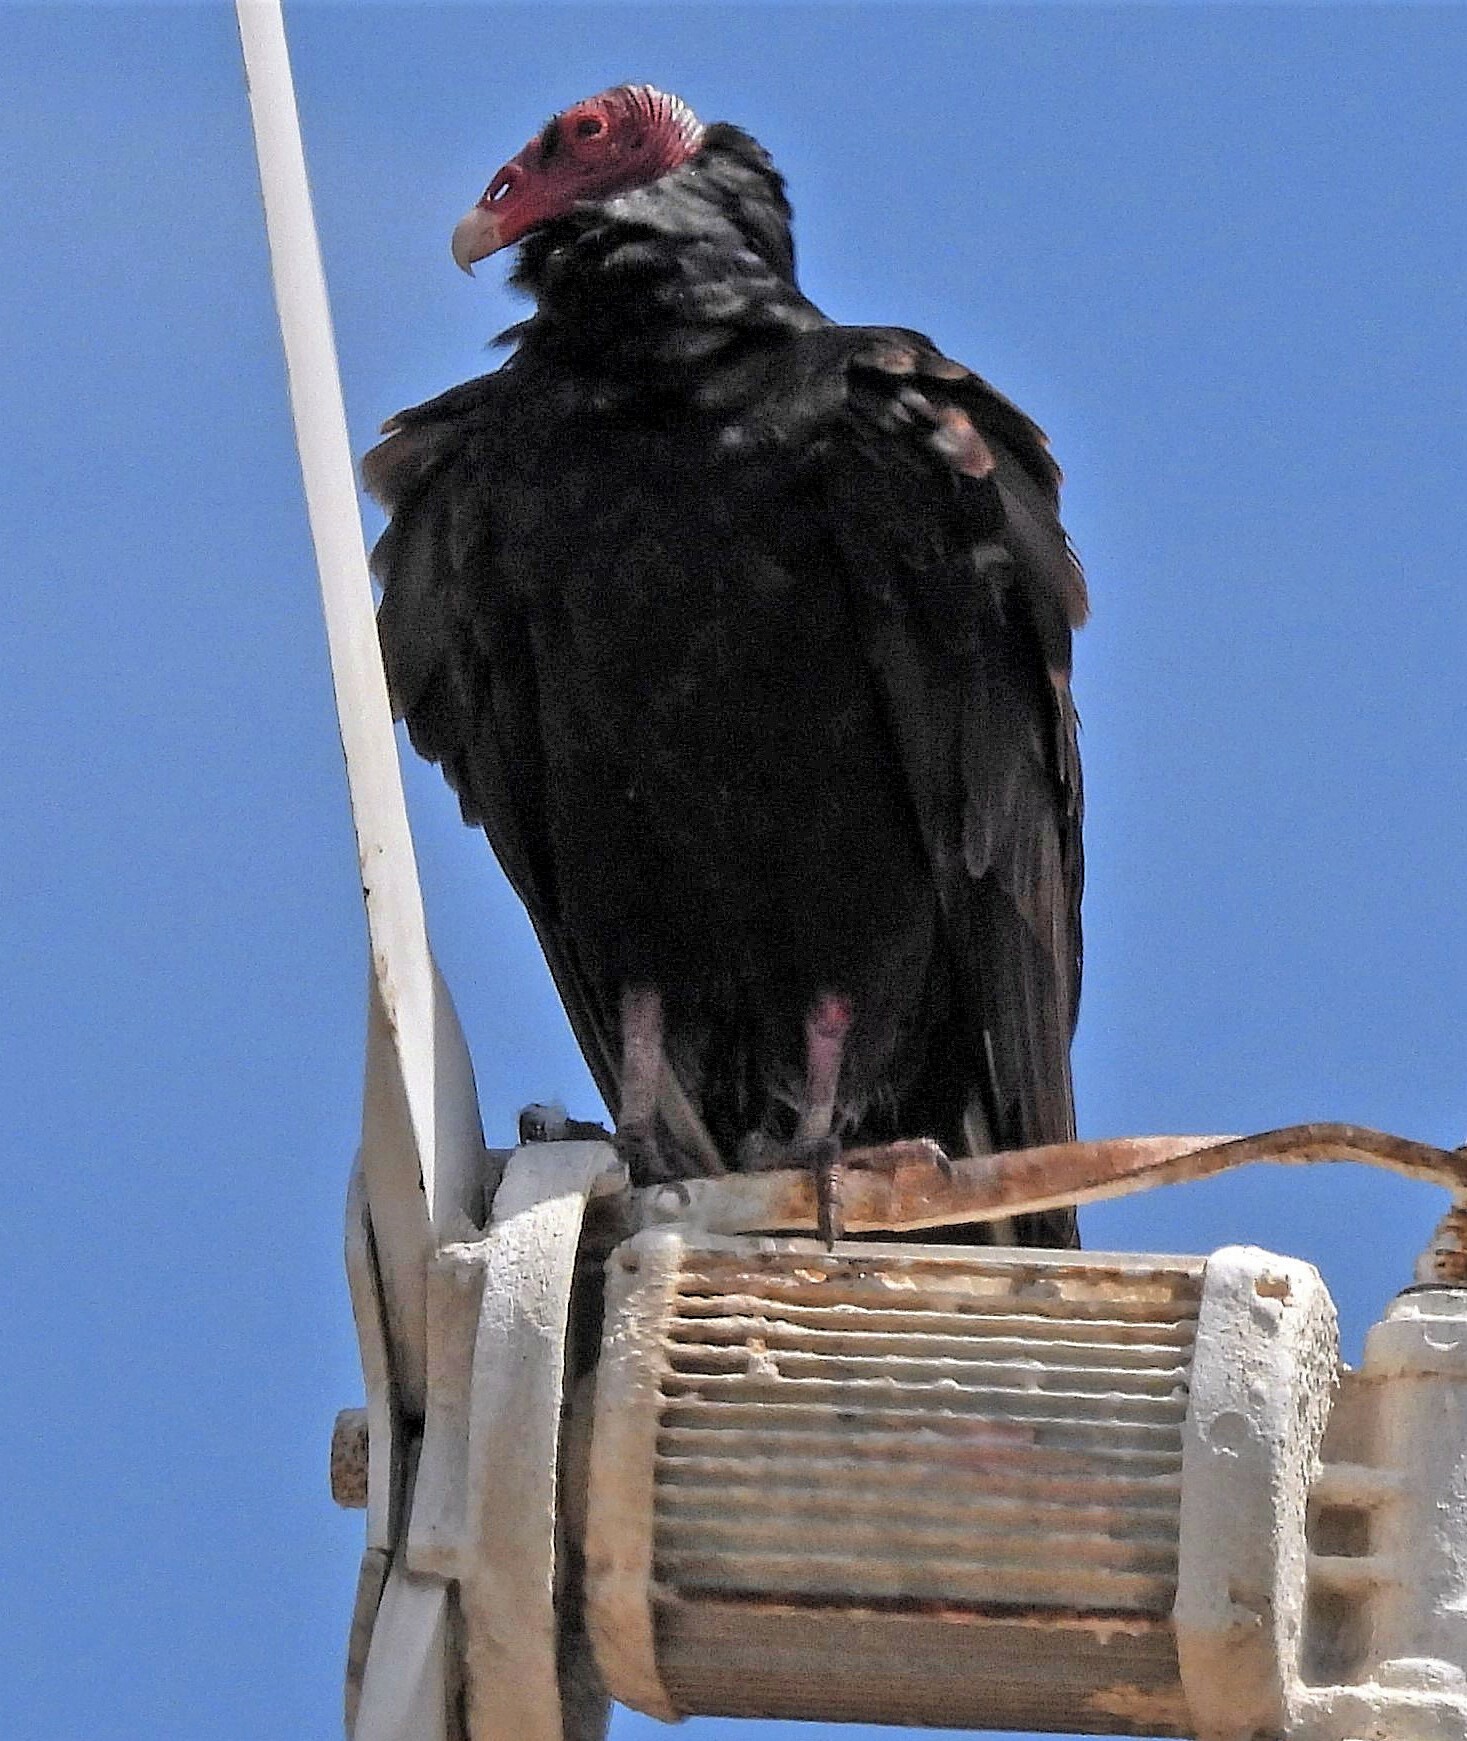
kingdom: Animalia
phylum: Chordata
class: Aves
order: Accipitriformes
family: Cathartidae
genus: Cathartes
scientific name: Cathartes aura
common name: Turkey vulture
